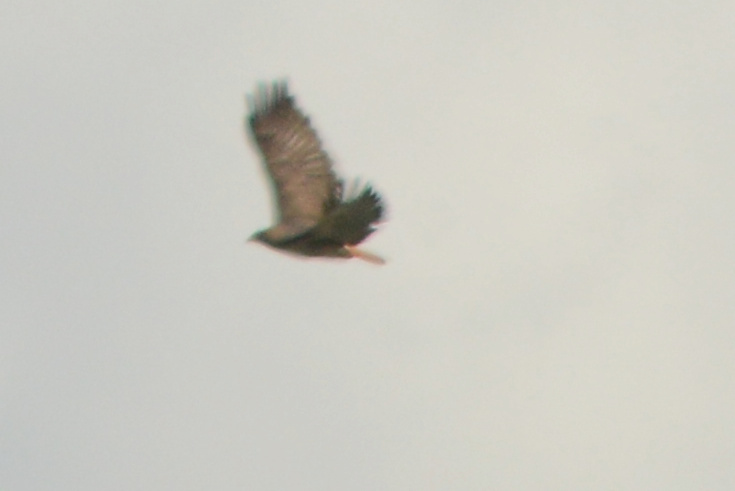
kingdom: Animalia
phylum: Chordata
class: Aves
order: Accipitriformes
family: Accipitridae
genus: Buteo
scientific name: Buteo jamaicensis
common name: Red-tailed hawk
